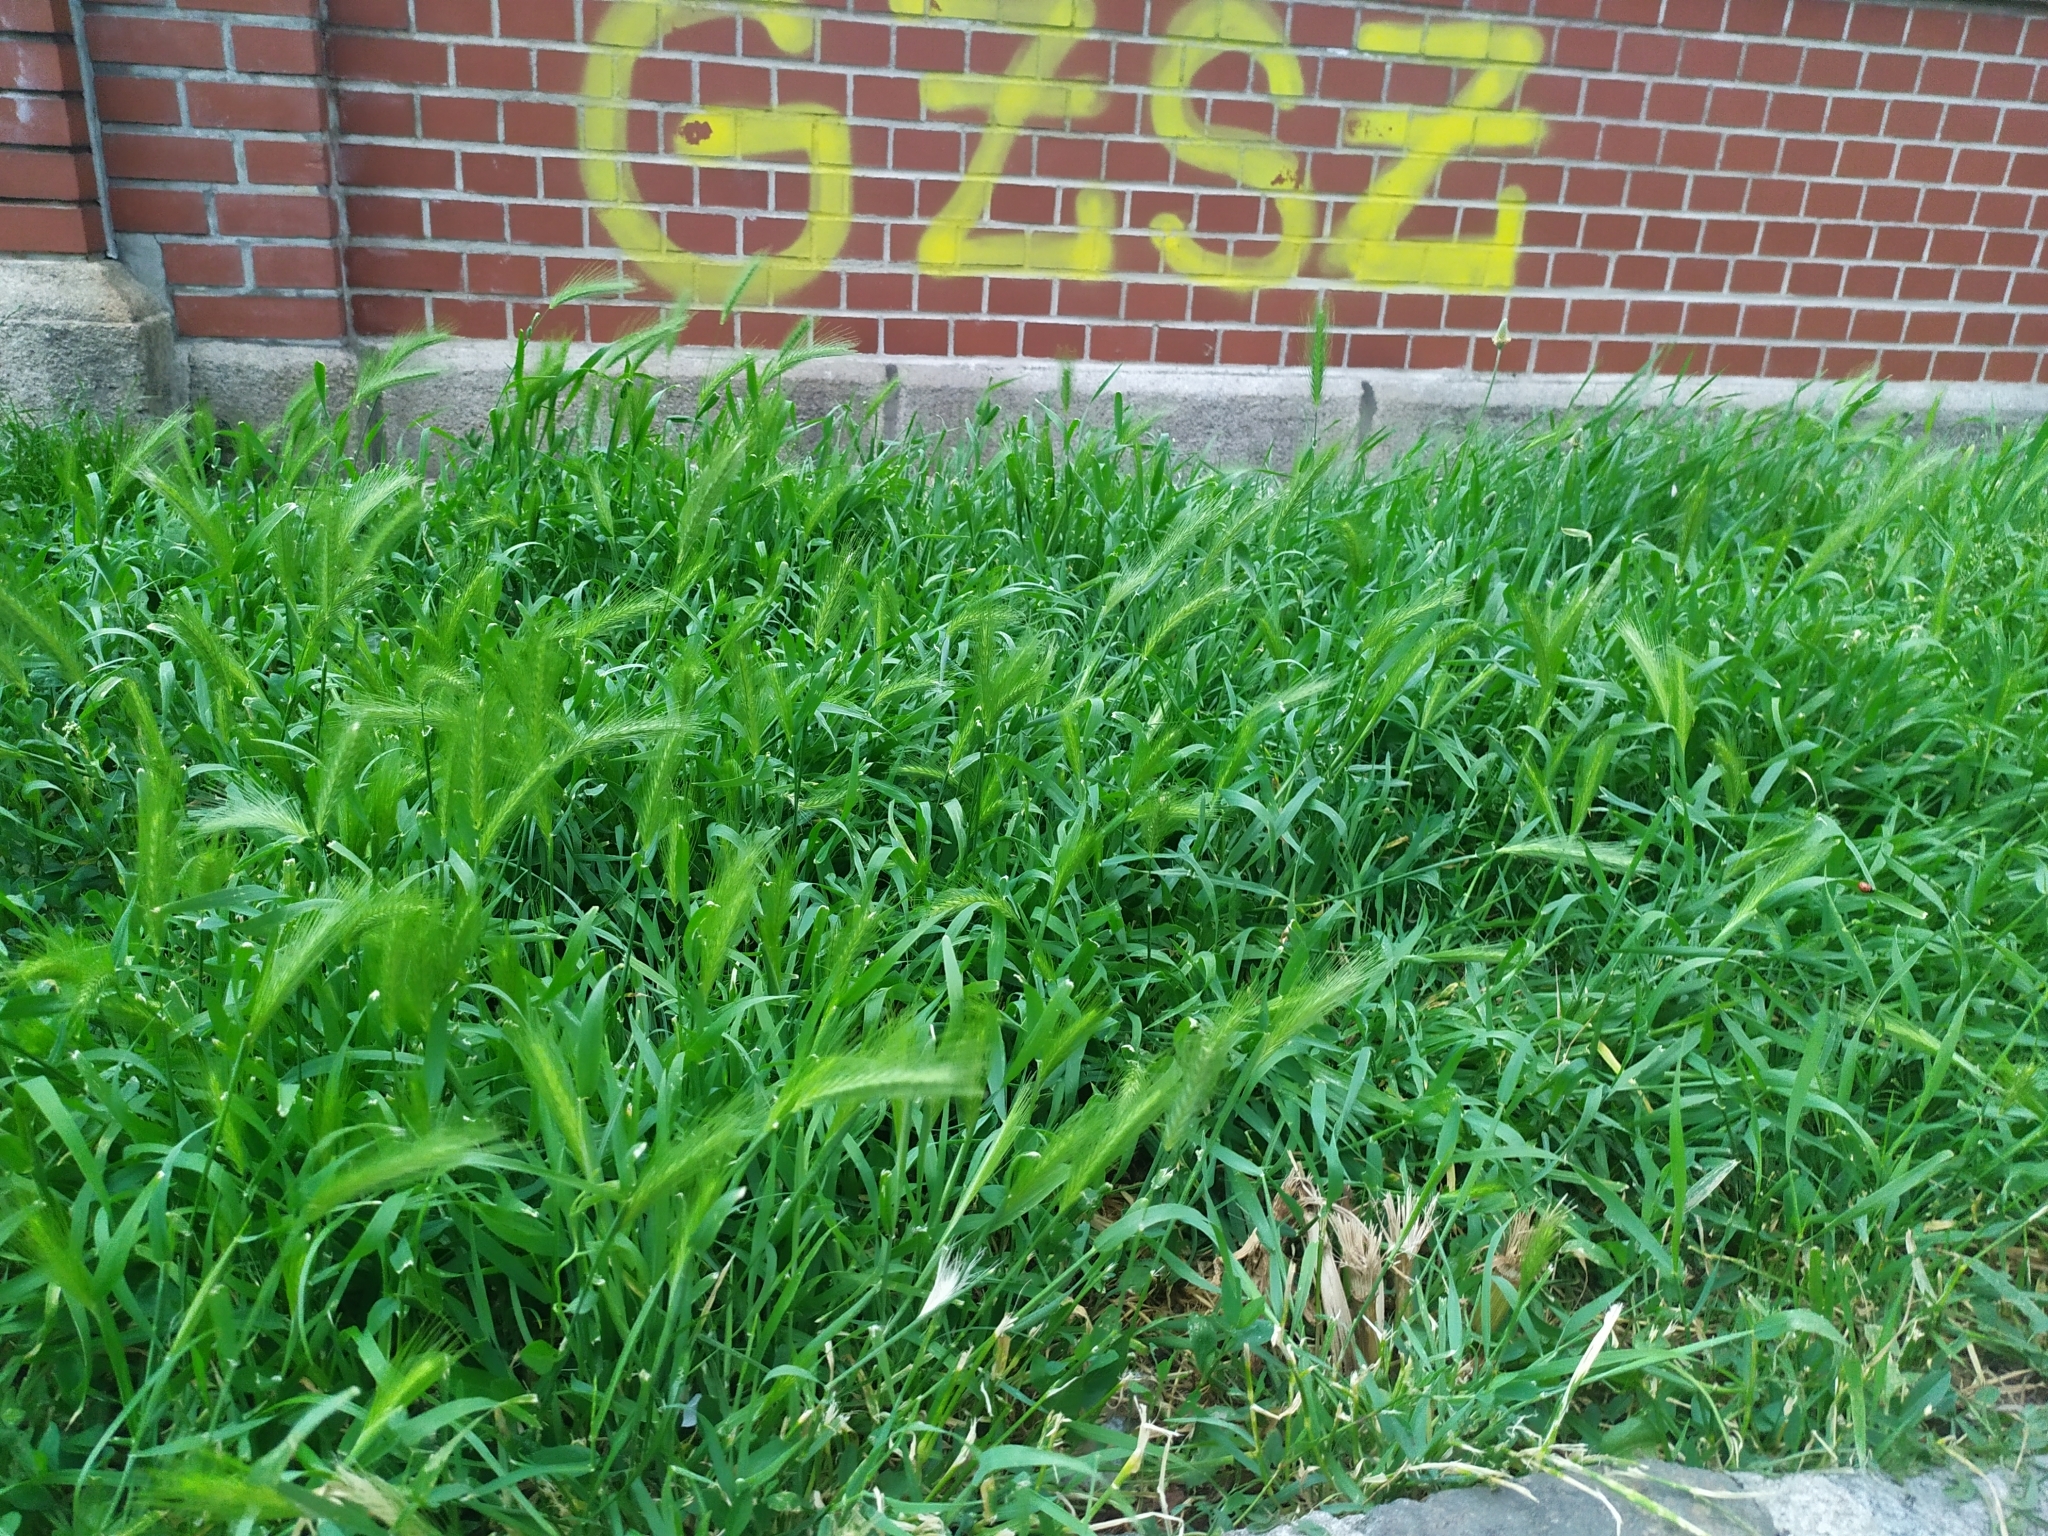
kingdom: Plantae
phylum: Tracheophyta
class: Liliopsida
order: Poales
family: Poaceae
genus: Hordeum
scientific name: Hordeum murinum
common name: Wall barley
